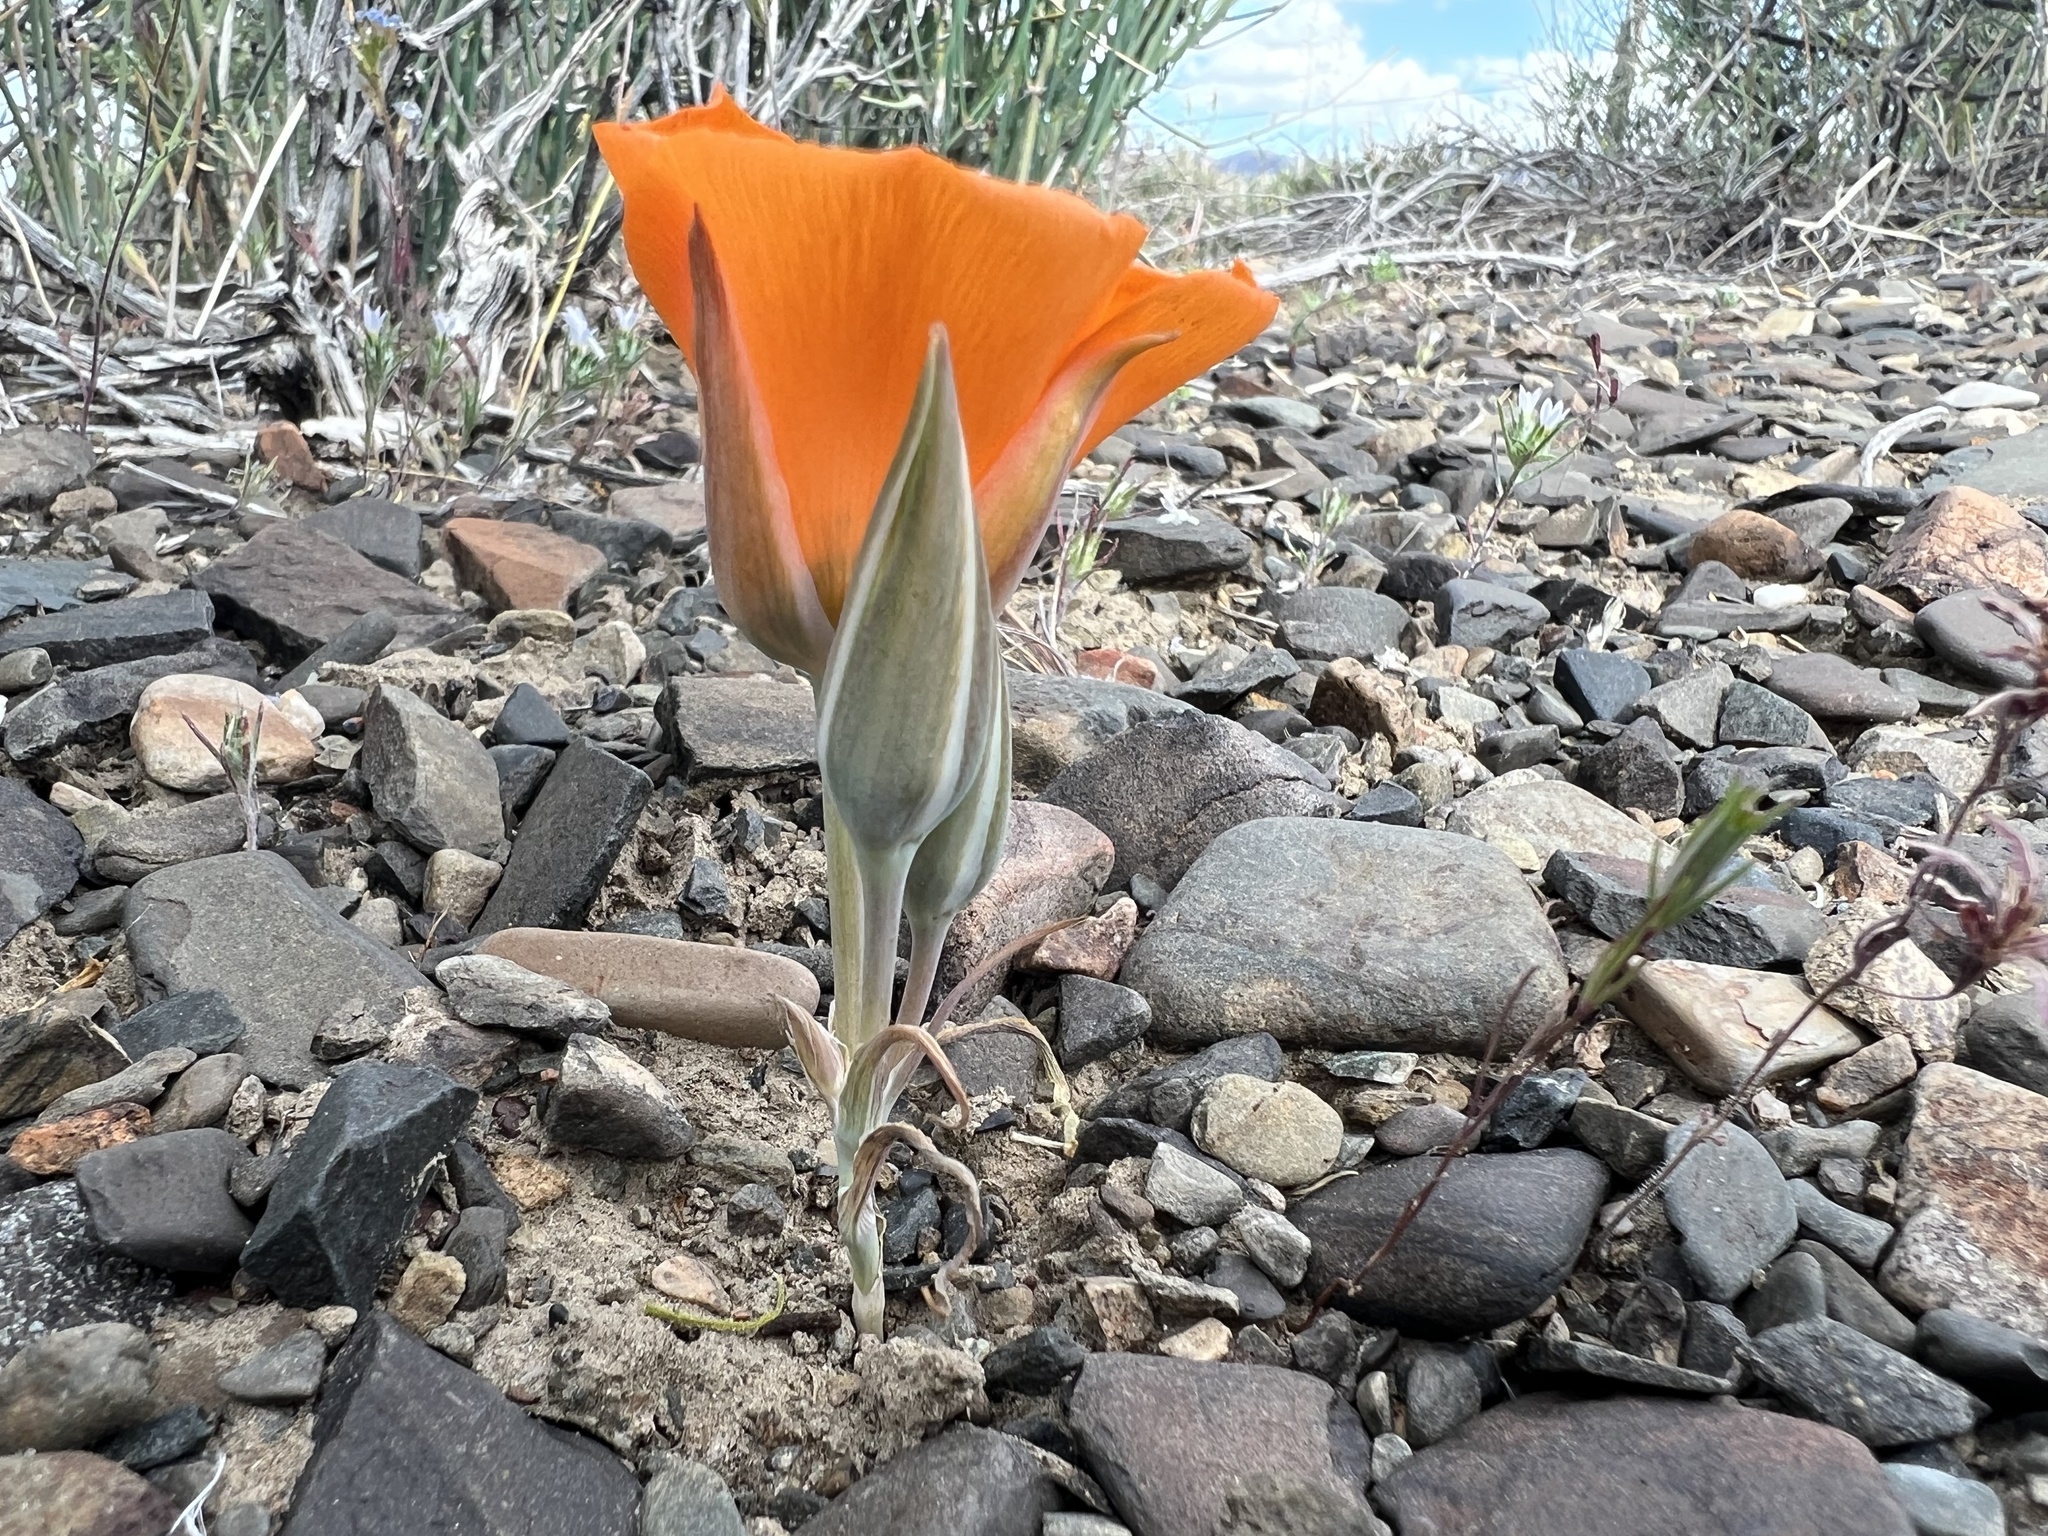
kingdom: Plantae
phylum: Tracheophyta
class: Liliopsida
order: Liliales
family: Liliaceae
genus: Calochortus
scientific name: Calochortus kennedyi
